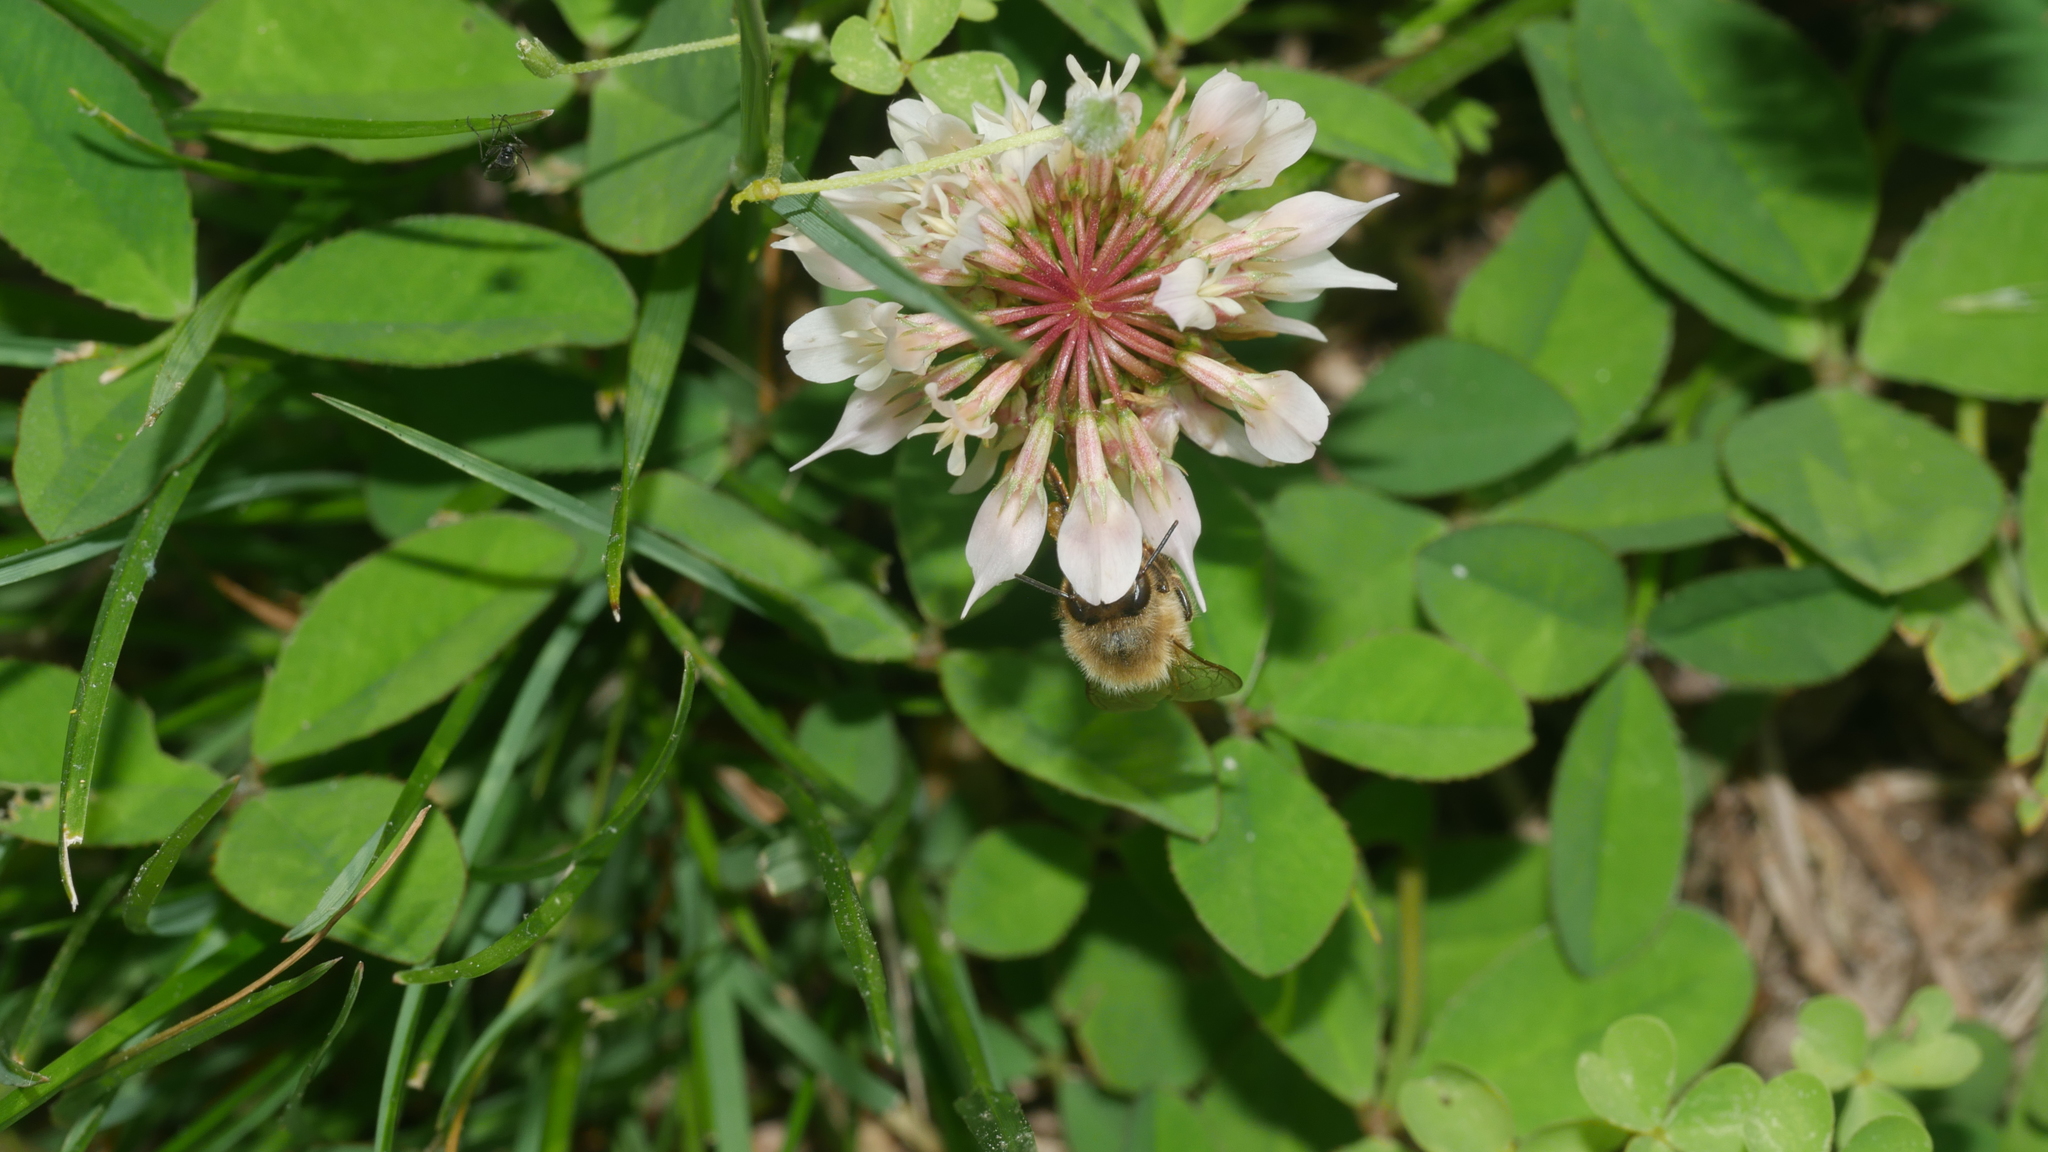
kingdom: Plantae
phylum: Tracheophyta
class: Magnoliopsida
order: Fabales
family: Fabaceae
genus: Trifolium
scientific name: Trifolium repens
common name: White clover
